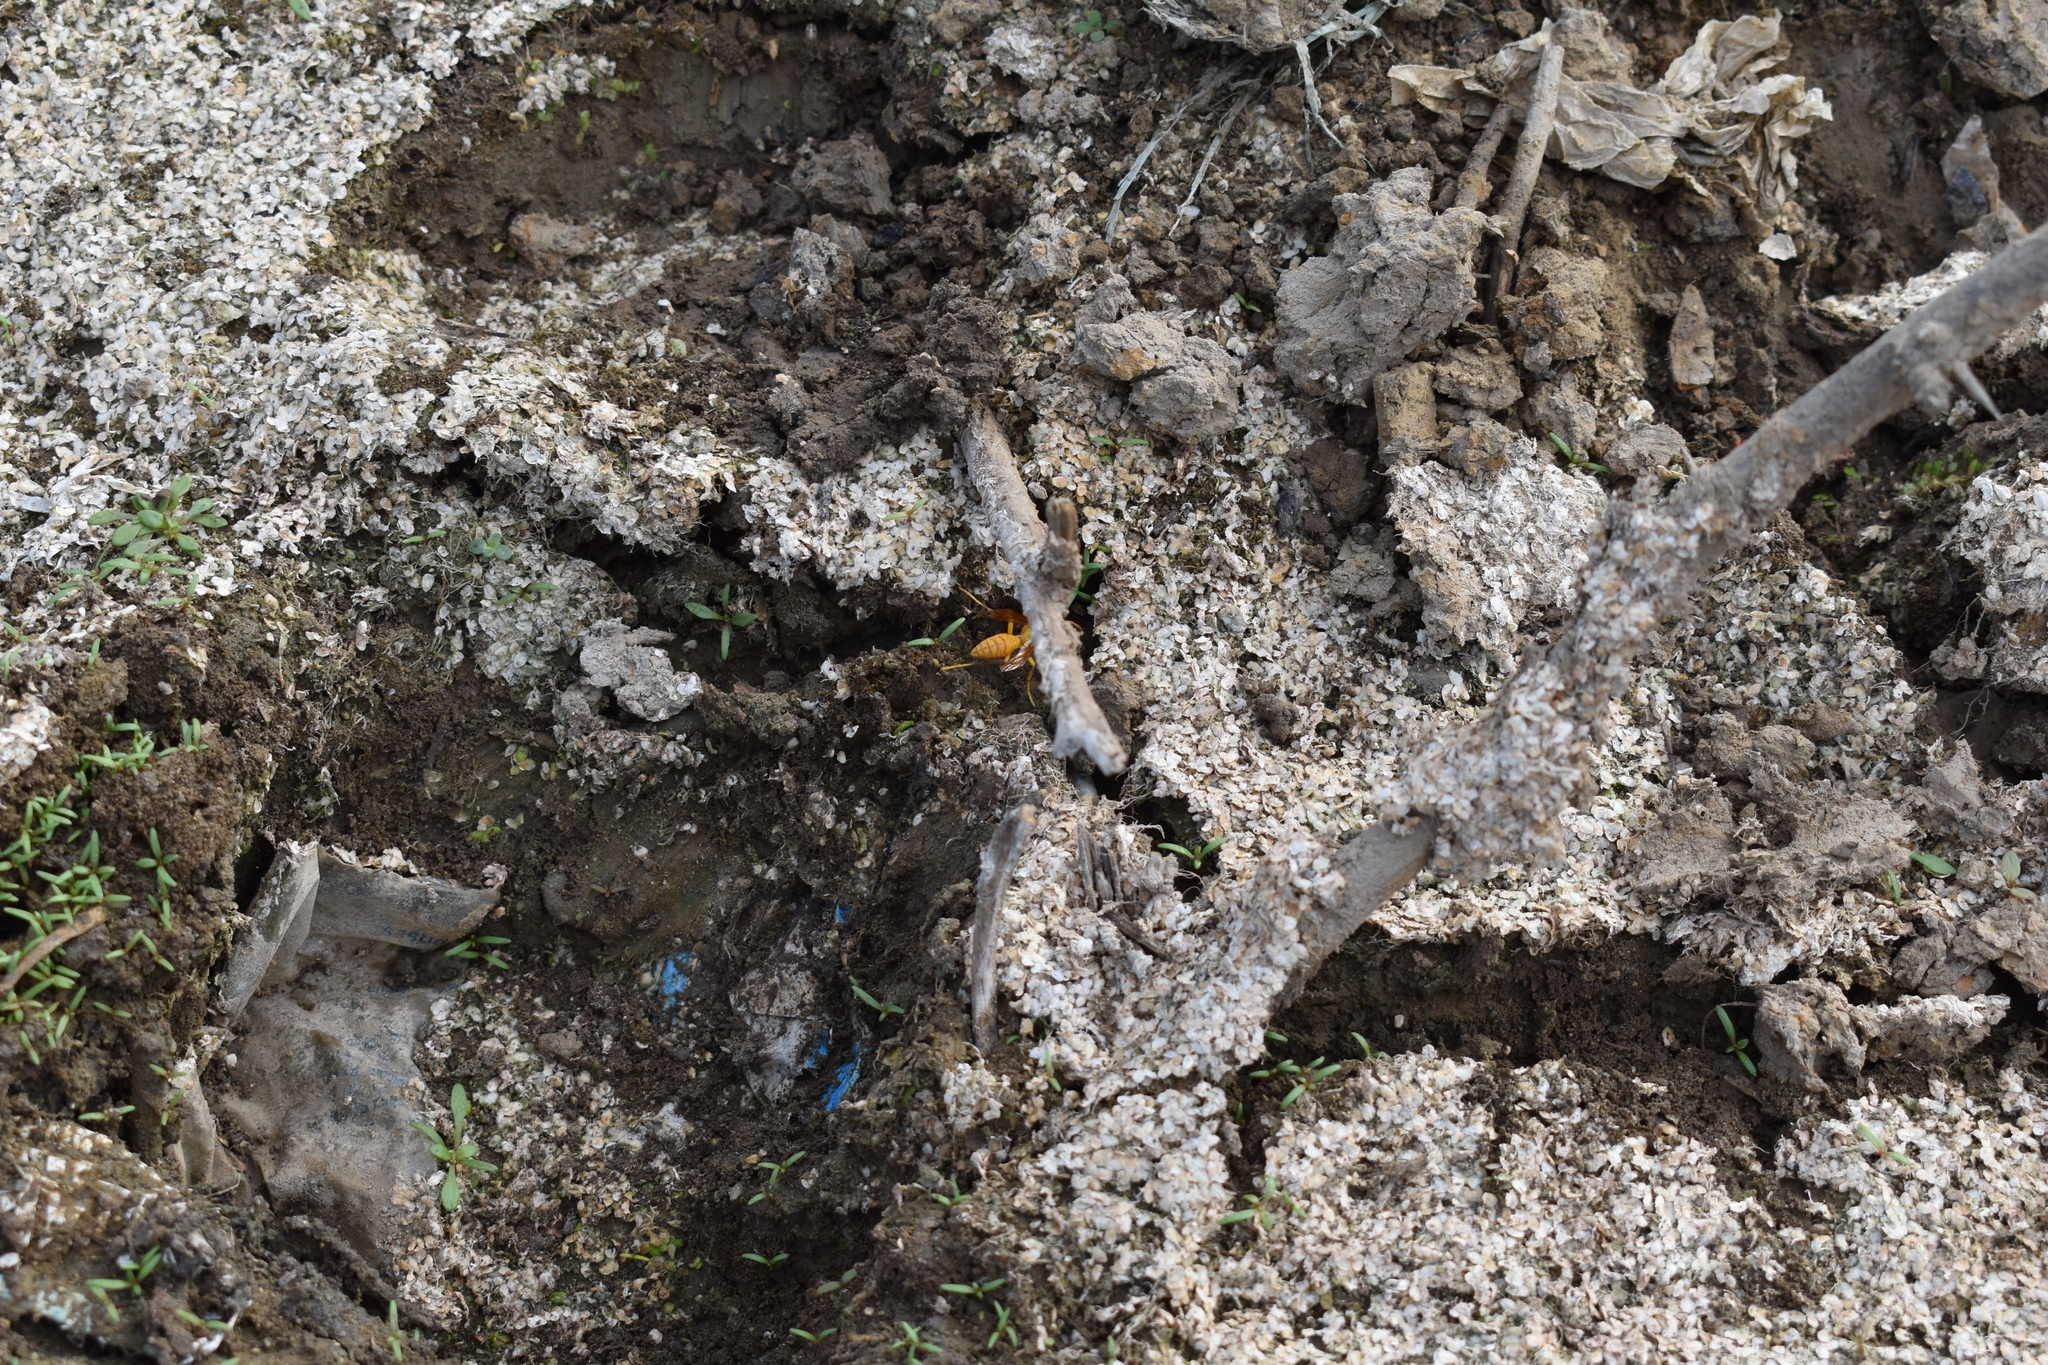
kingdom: Animalia
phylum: Arthropoda
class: Insecta
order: Hymenoptera
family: Eumenidae
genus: Polistes
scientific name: Polistes wattii
